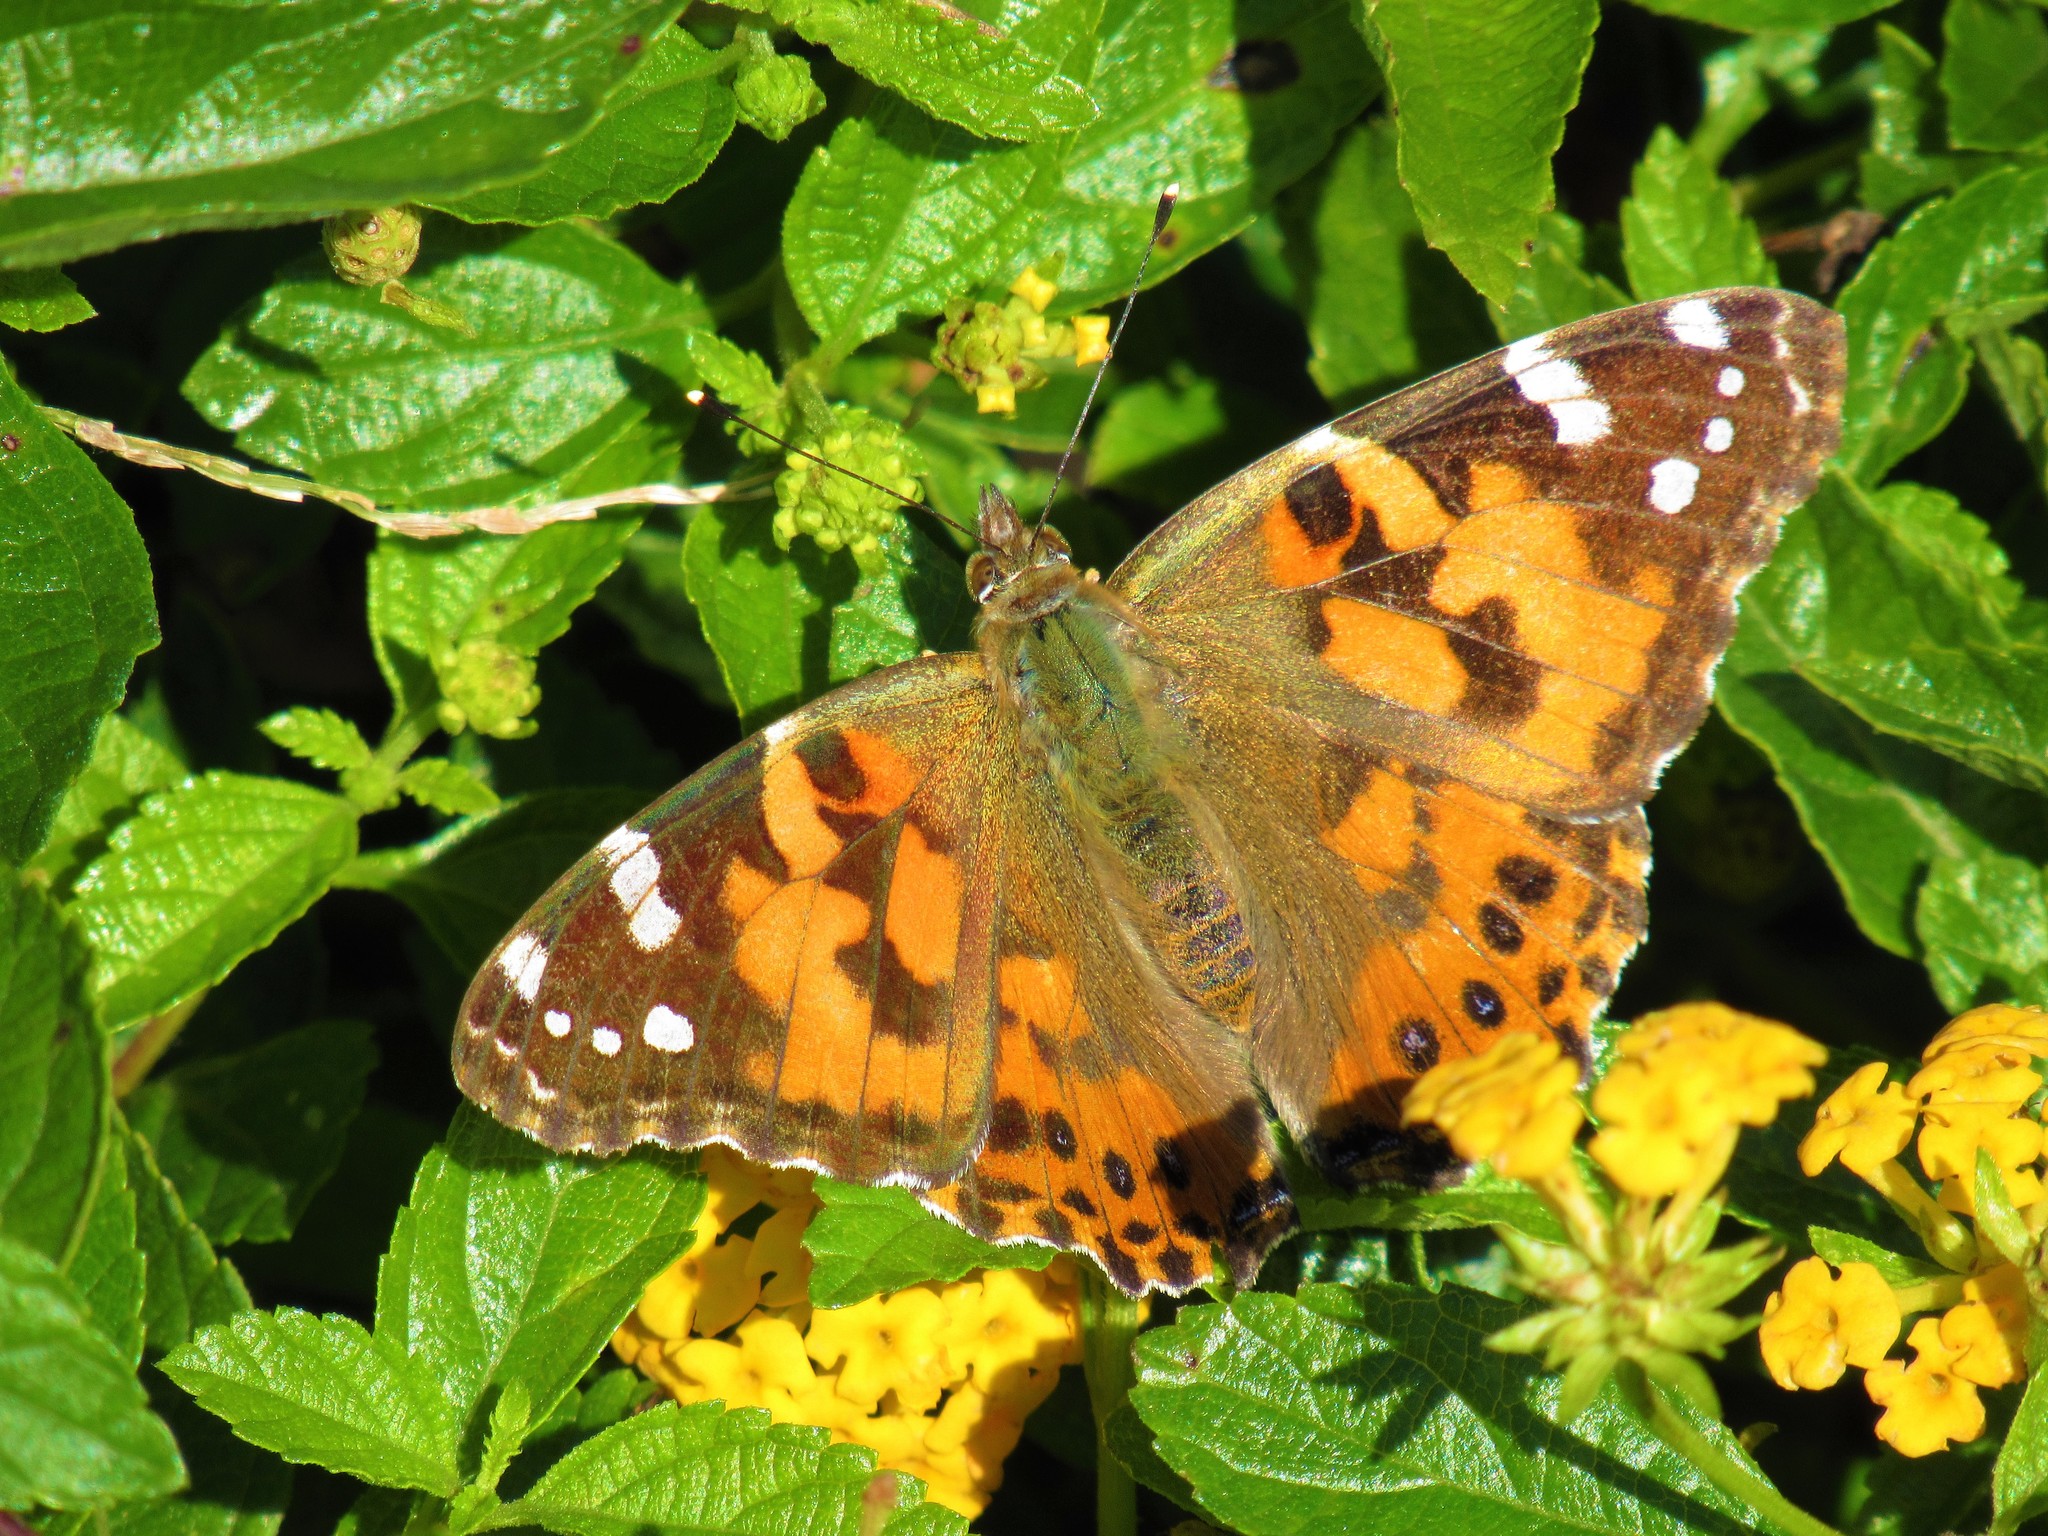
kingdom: Animalia
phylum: Arthropoda
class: Insecta
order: Lepidoptera
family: Nymphalidae
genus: Vanessa
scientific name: Vanessa cardui
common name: Painted lady
